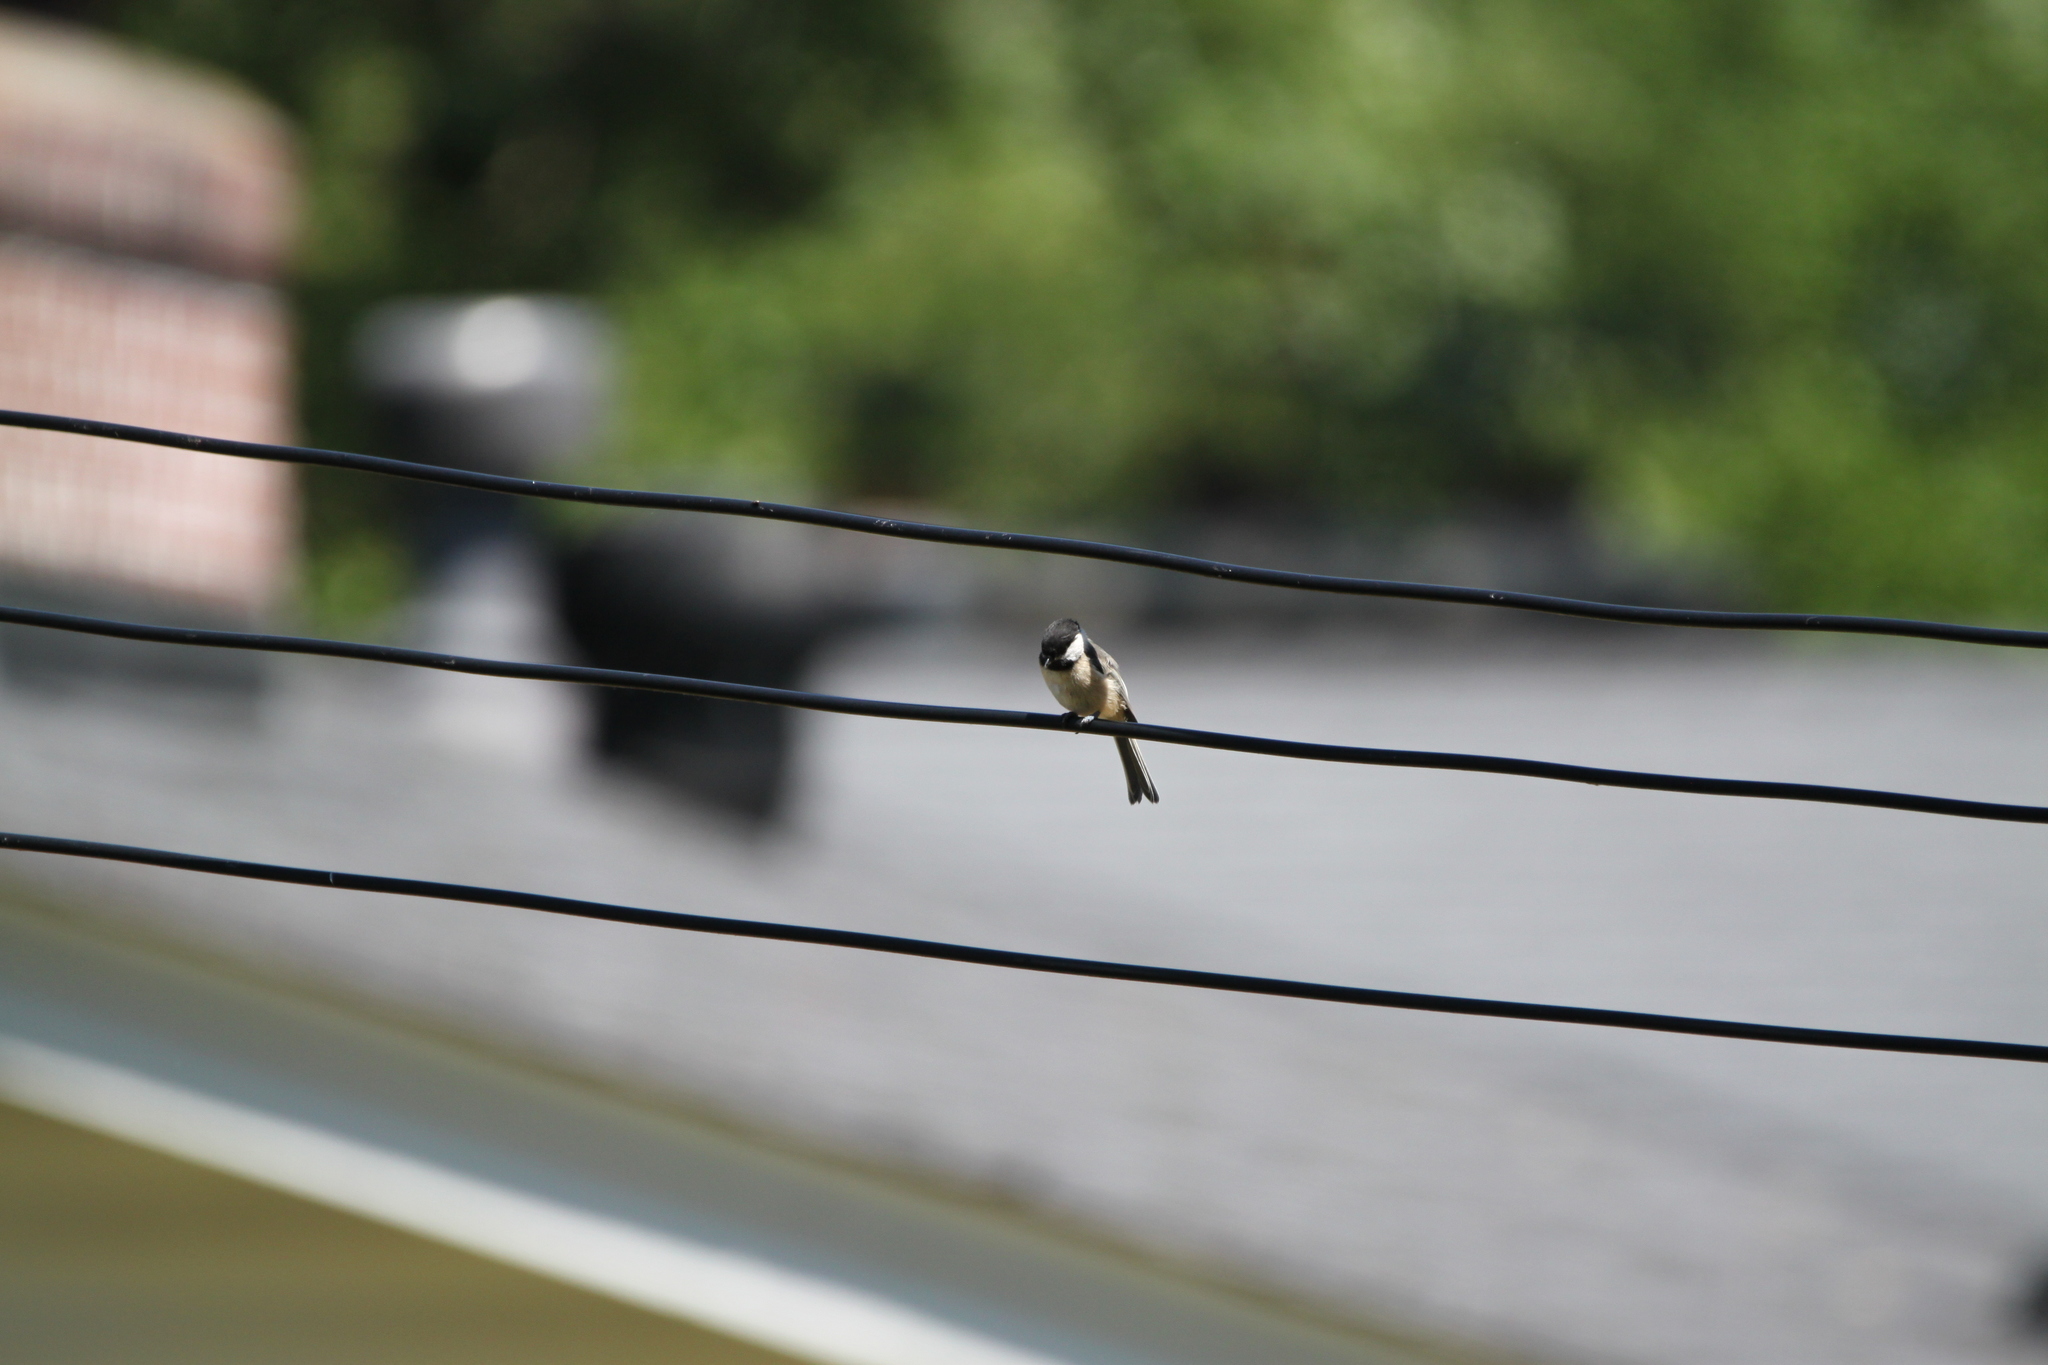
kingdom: Animalia
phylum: Chordata
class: Aves
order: Passeriformes
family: Paridae
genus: Poecile
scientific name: Poecile atricapillus
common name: Black-capped chickadee
